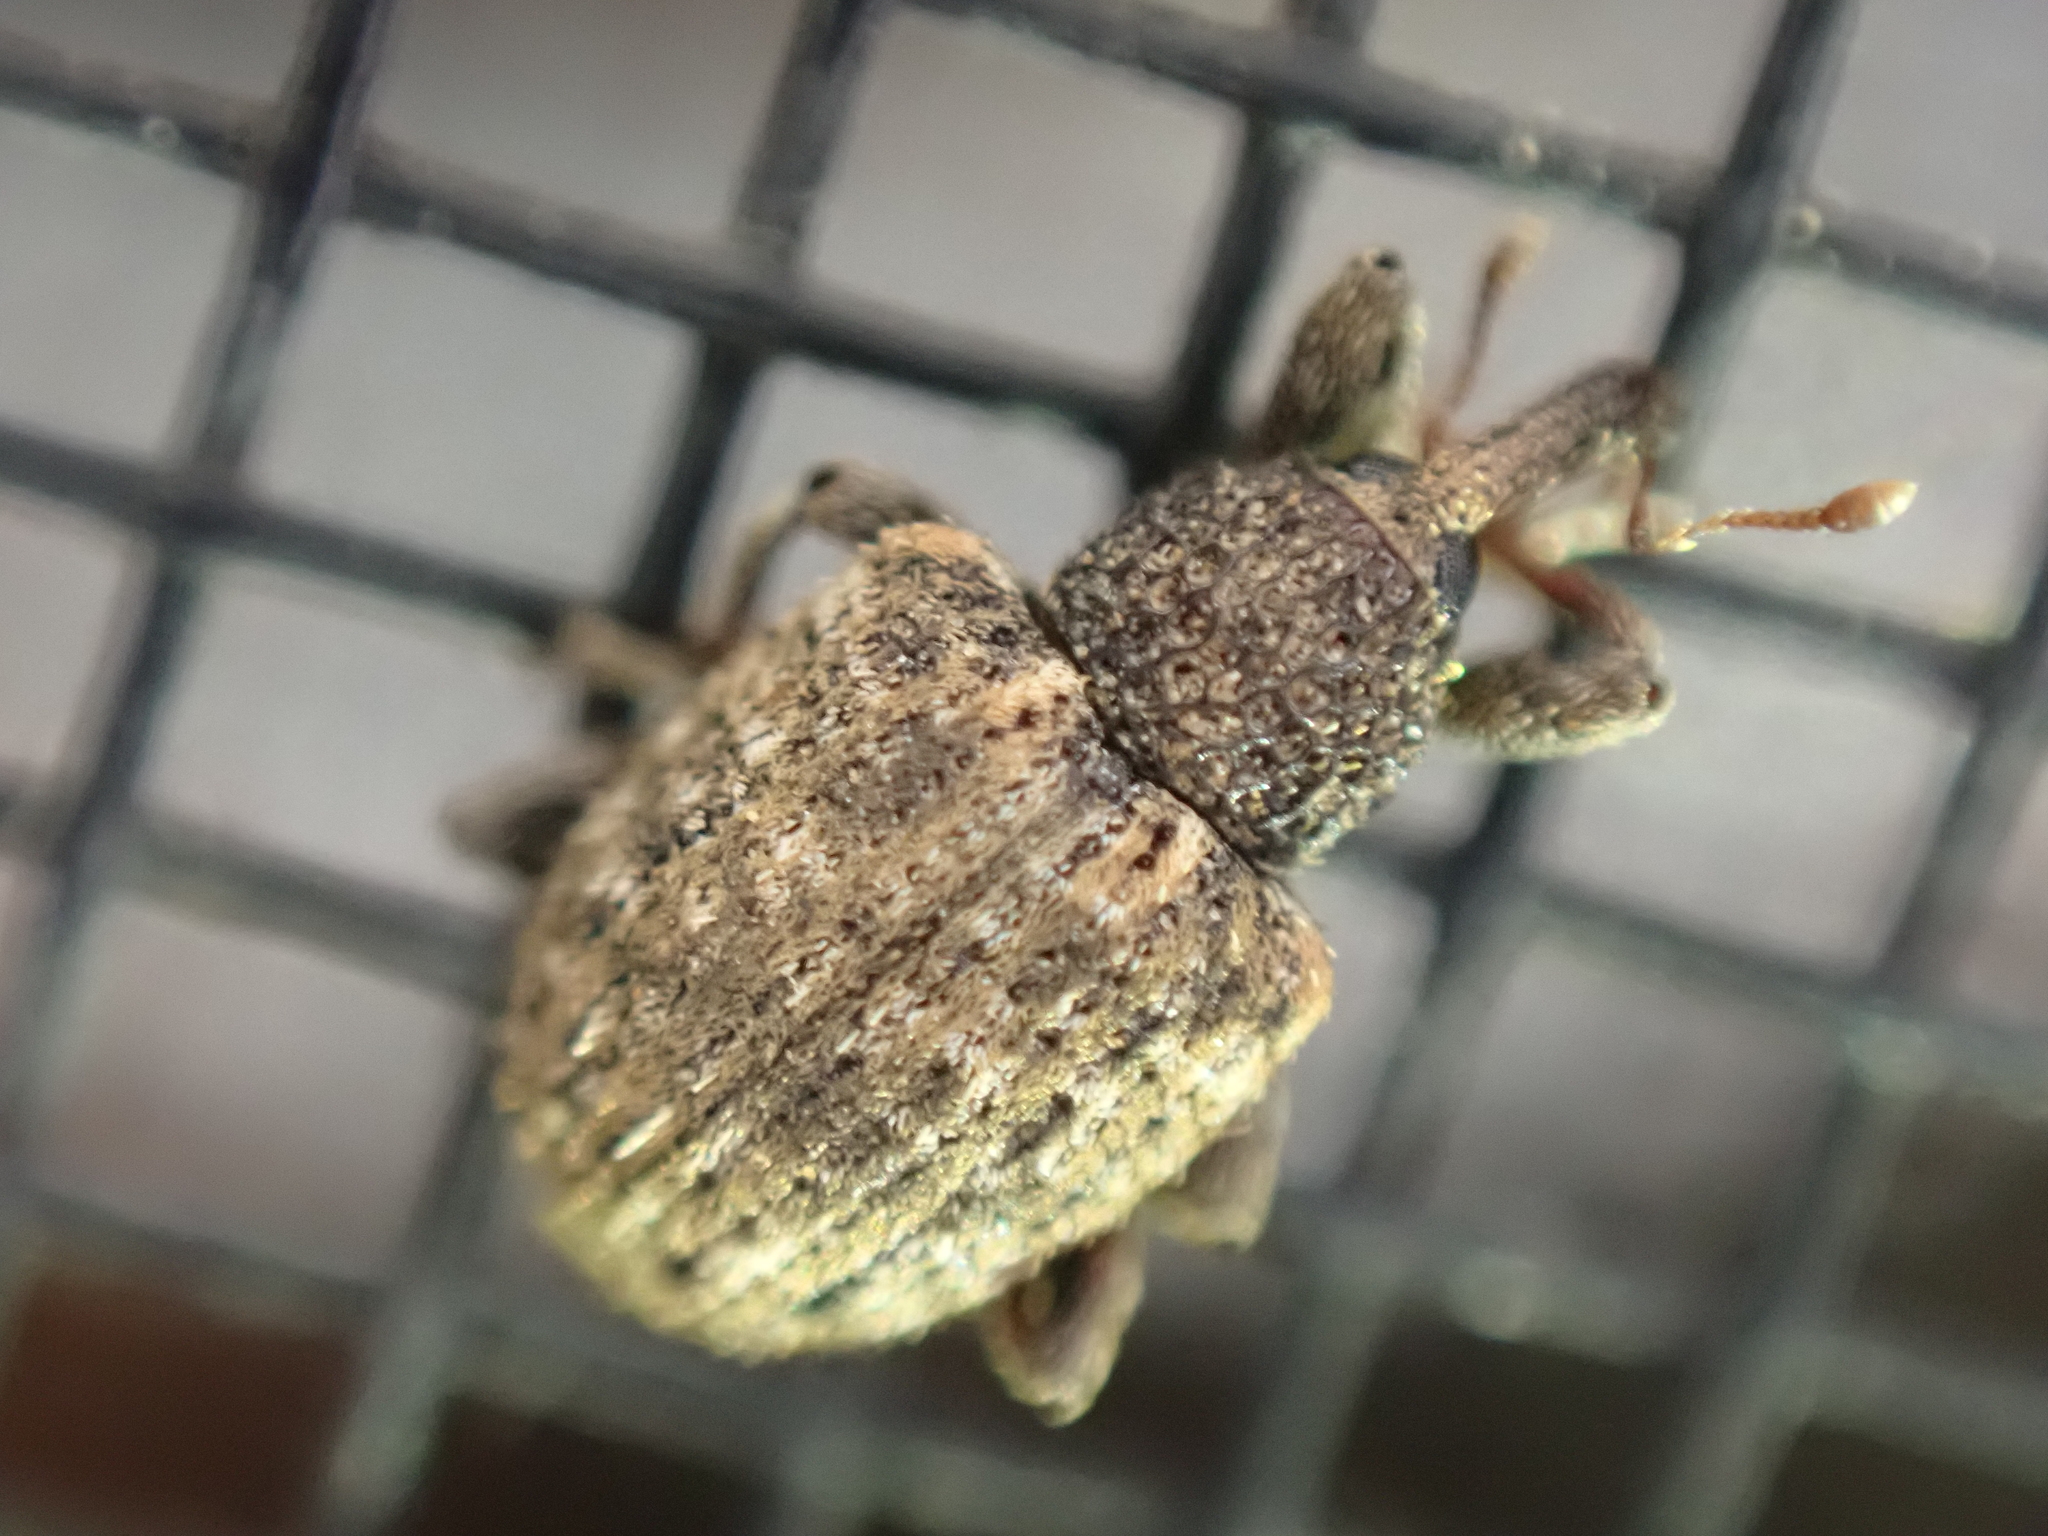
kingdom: Animalia
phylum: Arthropoda
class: Insecta
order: Coleoptera
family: Curculionidae
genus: Pheloconus
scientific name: Pheloconus cribricollis
